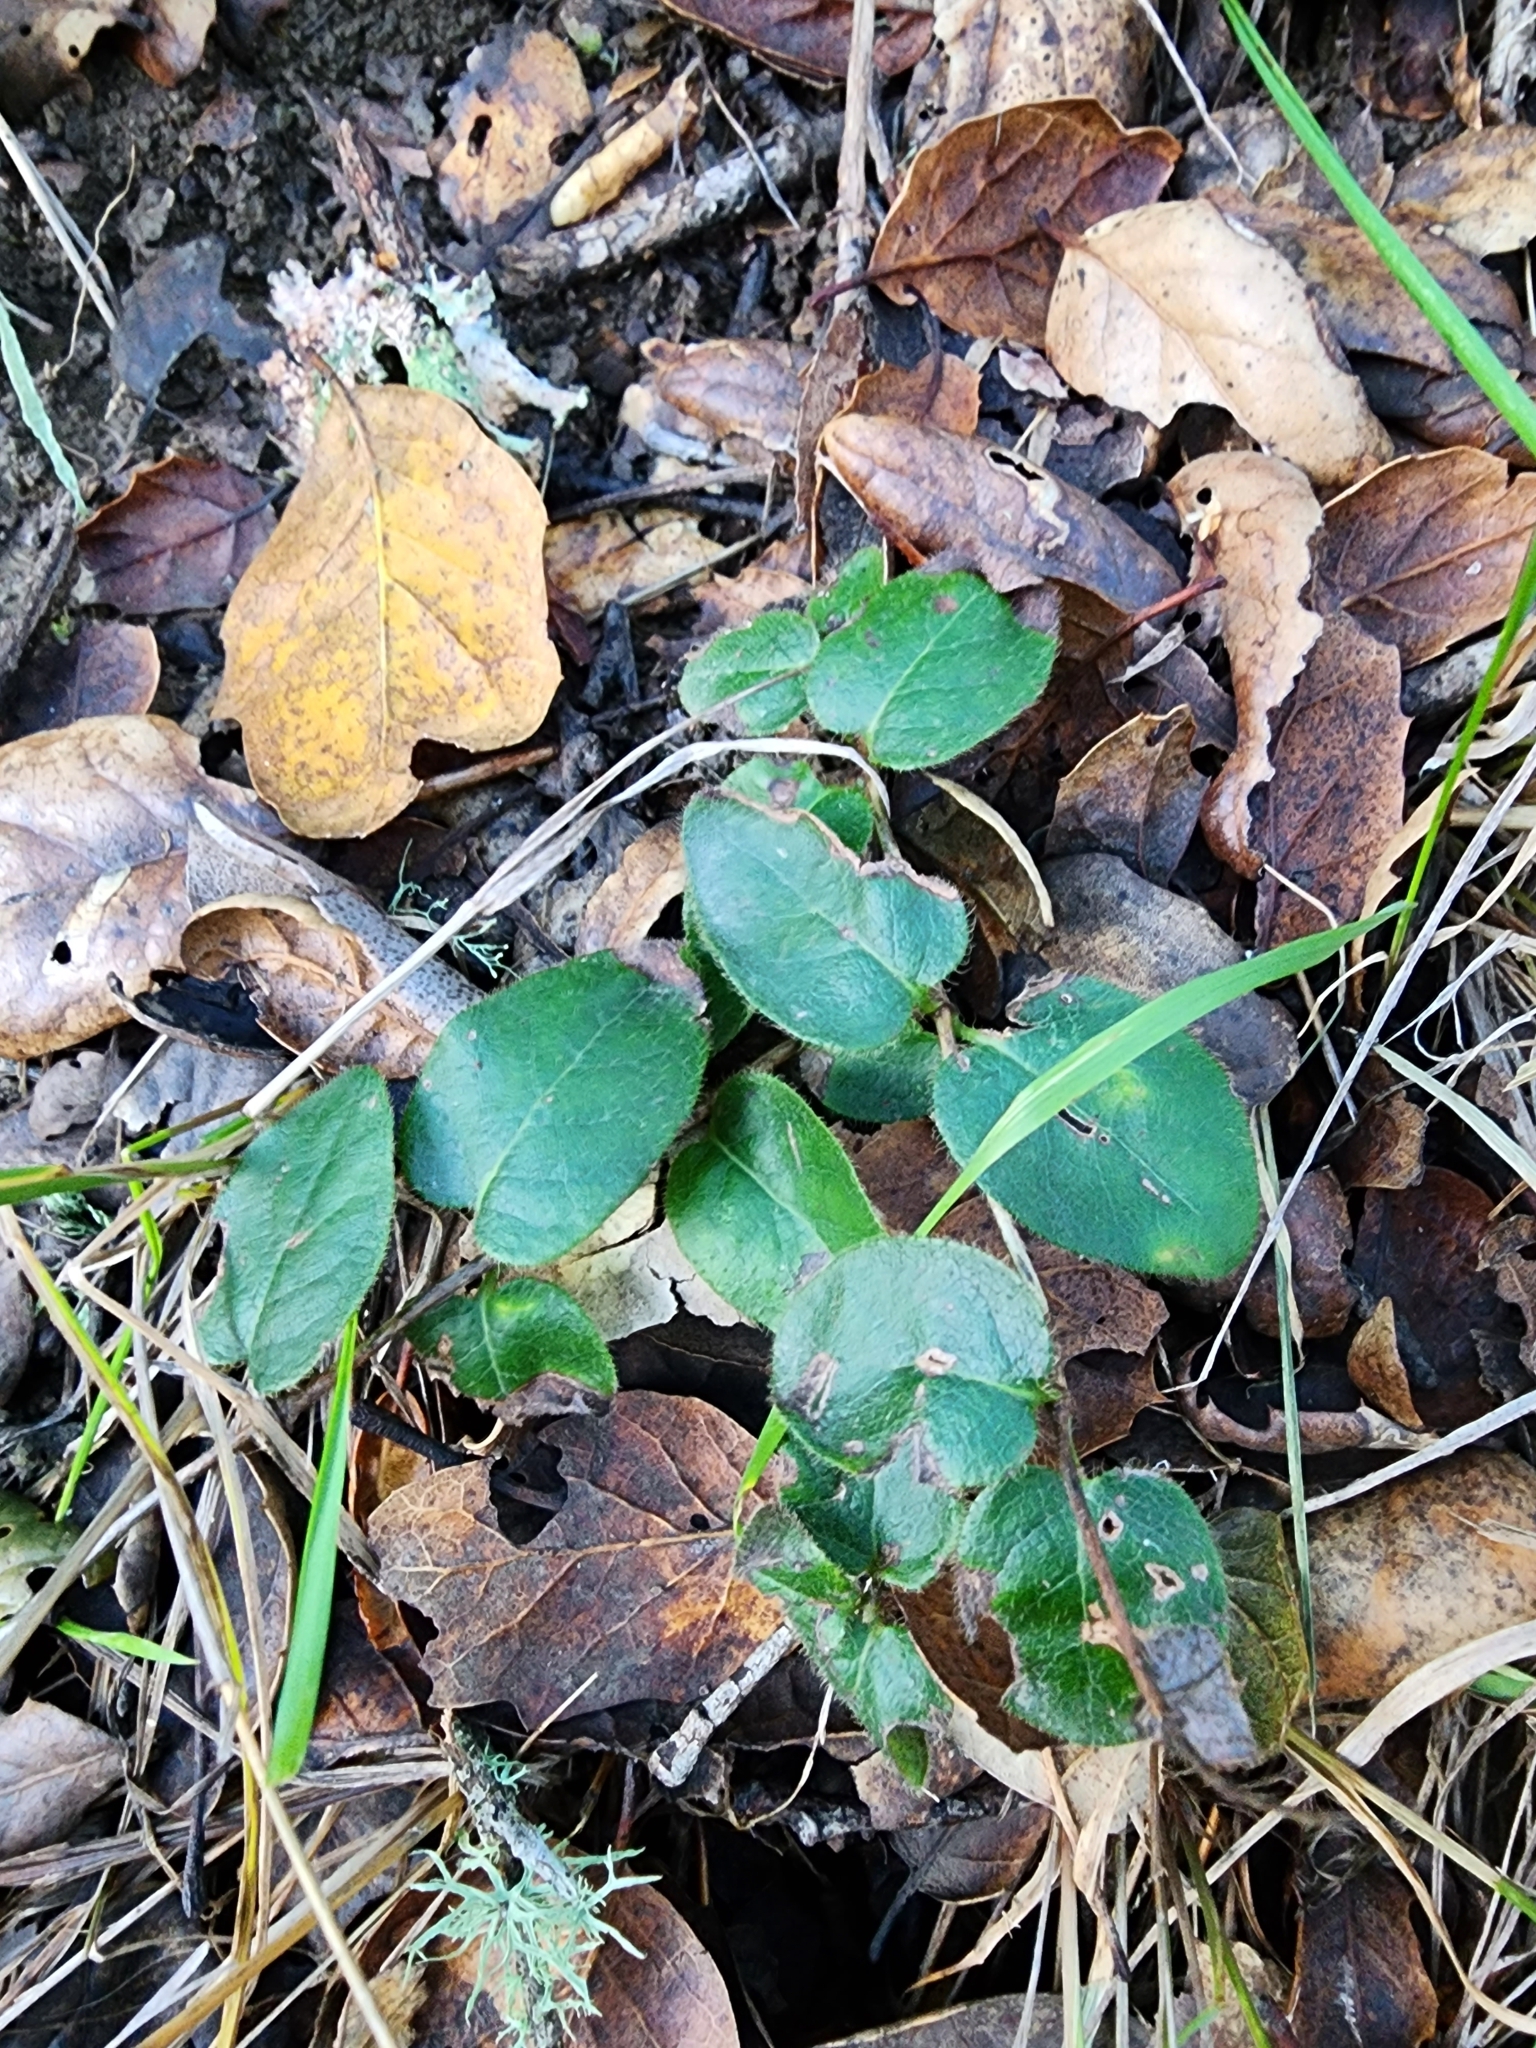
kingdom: Plantae
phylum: Tracheophyta
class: Magnoliopsida
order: Dipsacales
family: Caprifoliaceae
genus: Lonicera
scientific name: Lonicera hispidula
